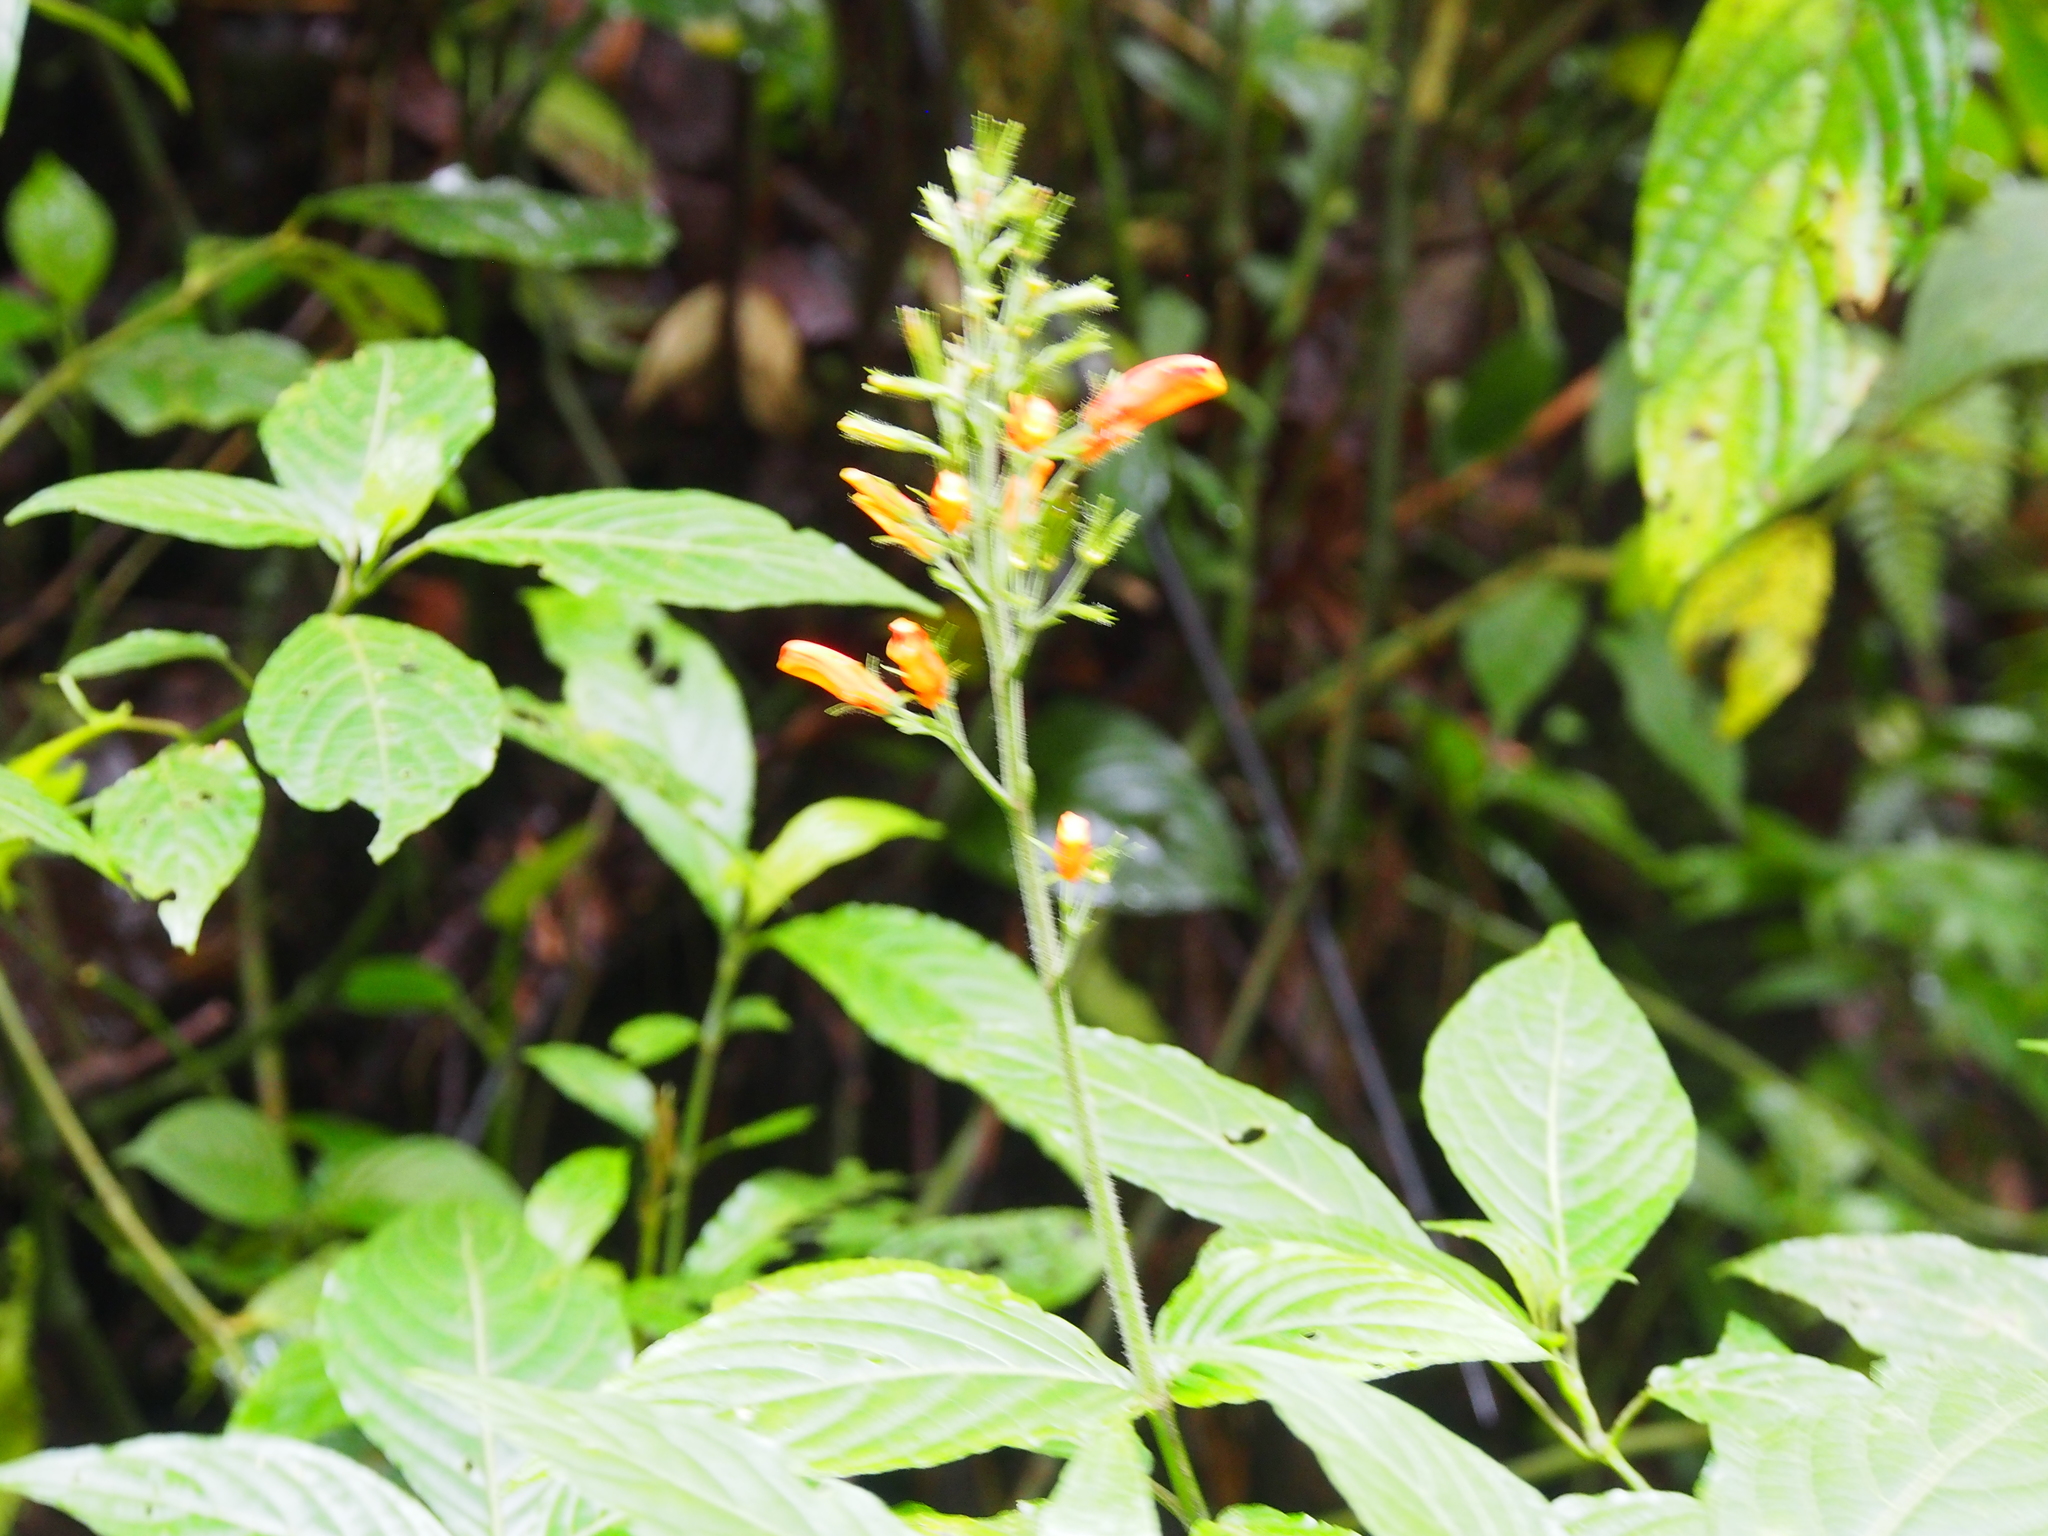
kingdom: Plantae
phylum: Tracheophyta
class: Magnoliopsida
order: Lamiales
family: Acanthaceae
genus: Stenostephanus
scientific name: Stenostephanus blepharorhachis
